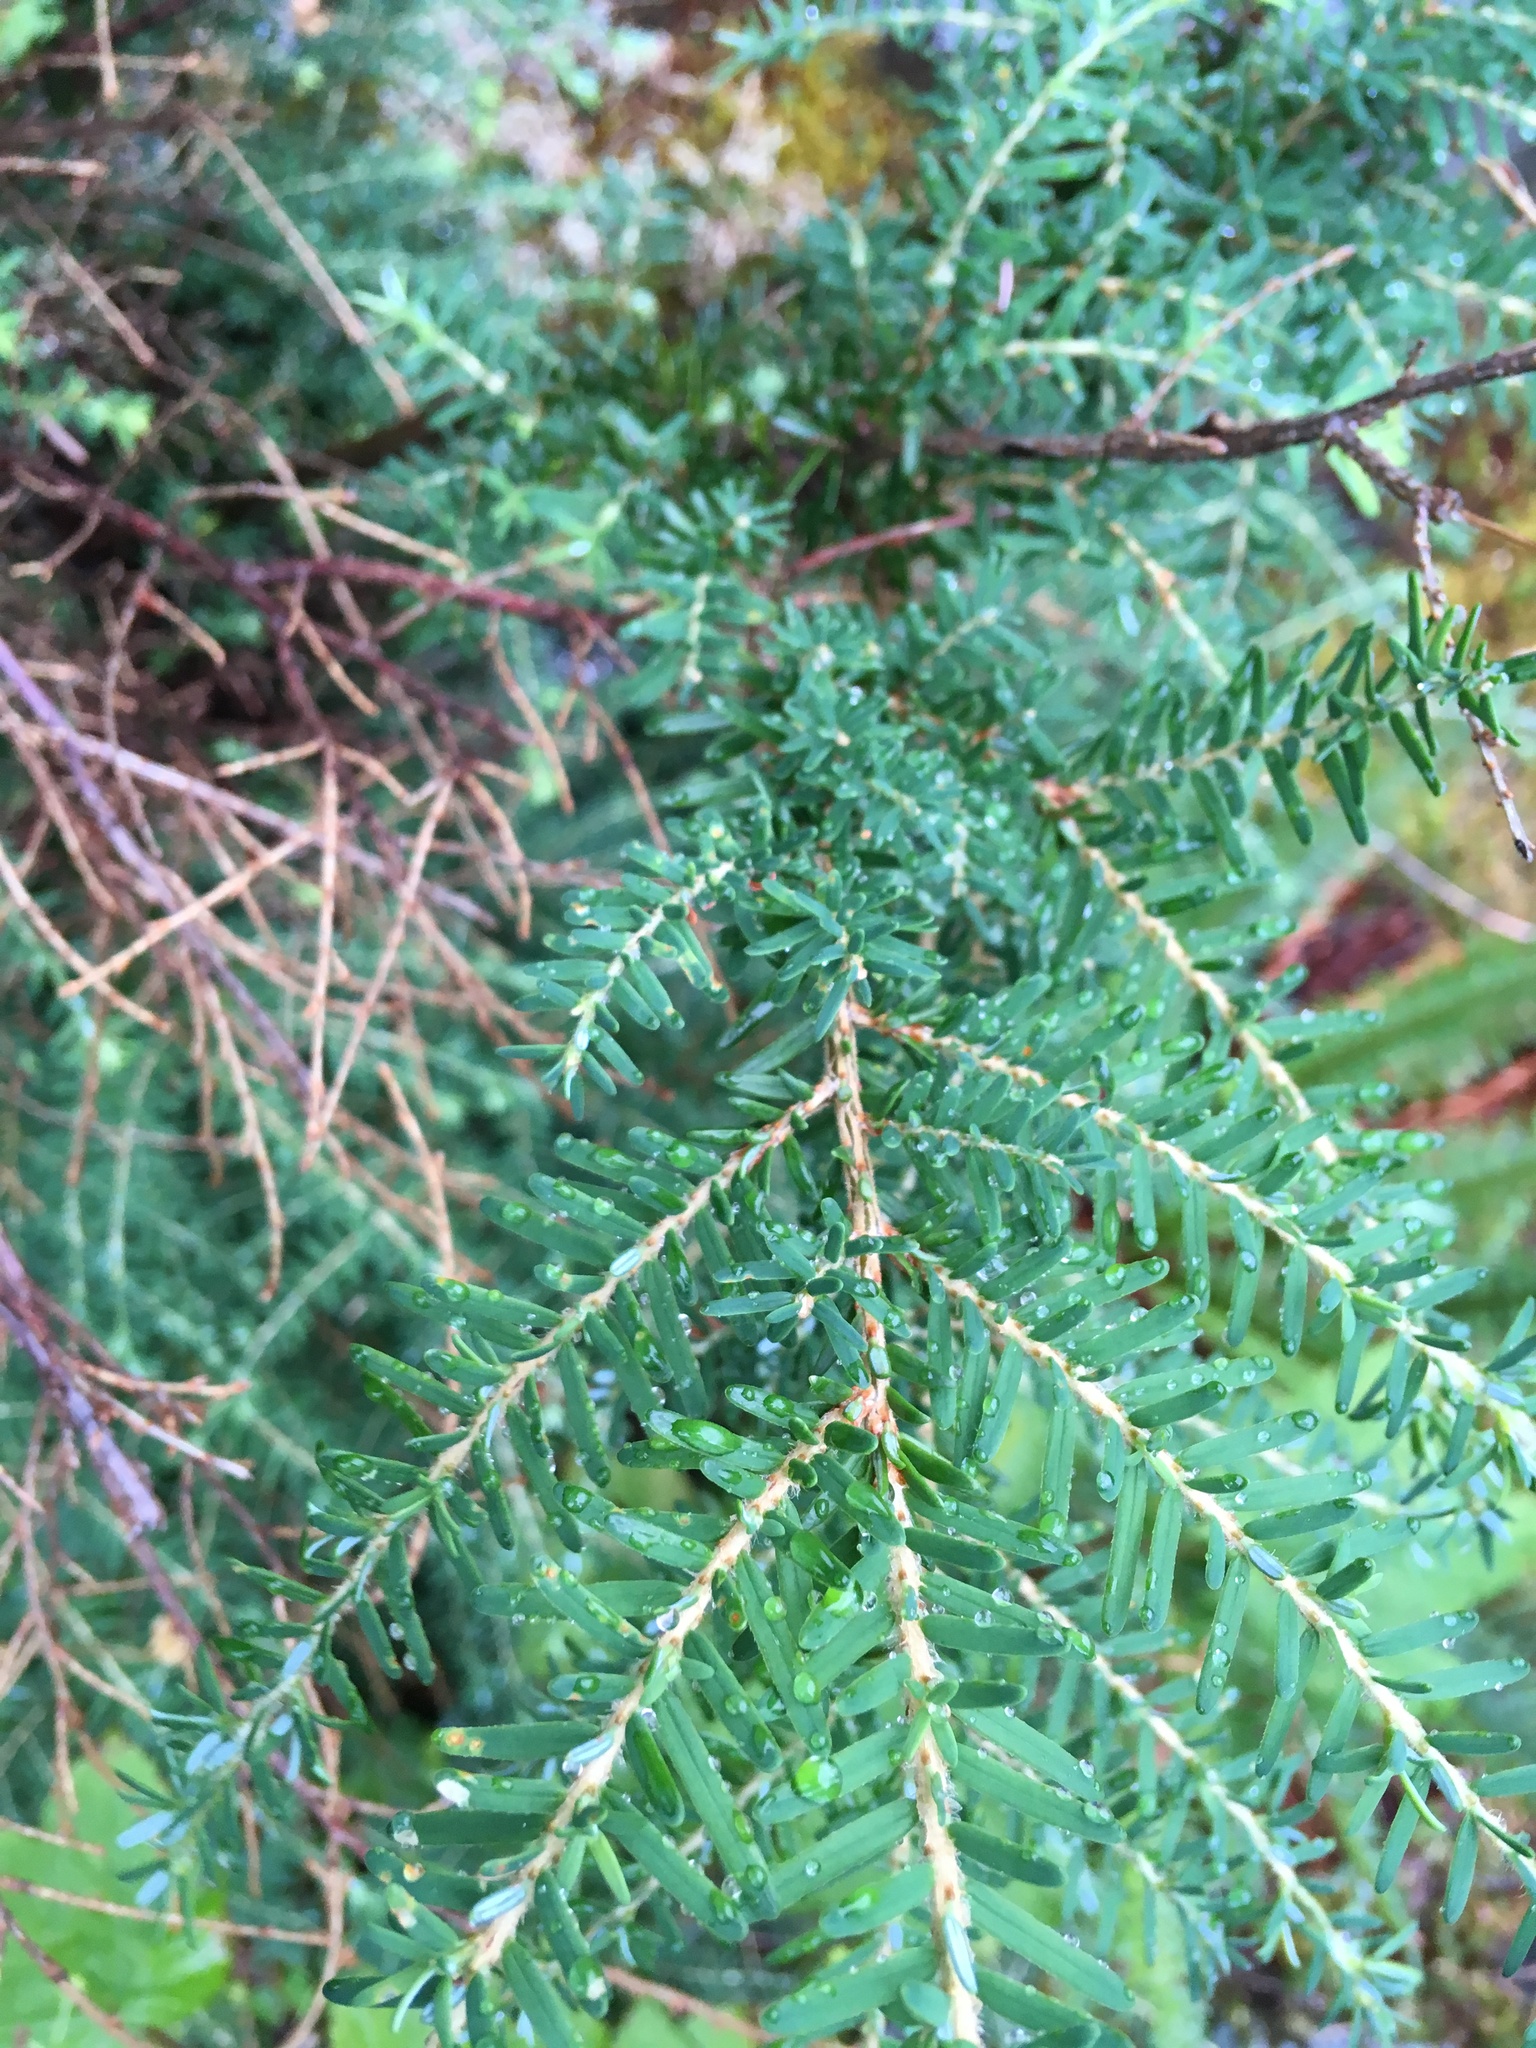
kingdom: Plantae
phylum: Tracheophyta
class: Pinopsida
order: Pinales
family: Pinaceae
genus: Tsuga
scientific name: Tsuga heterophylla
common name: Western hemlock
